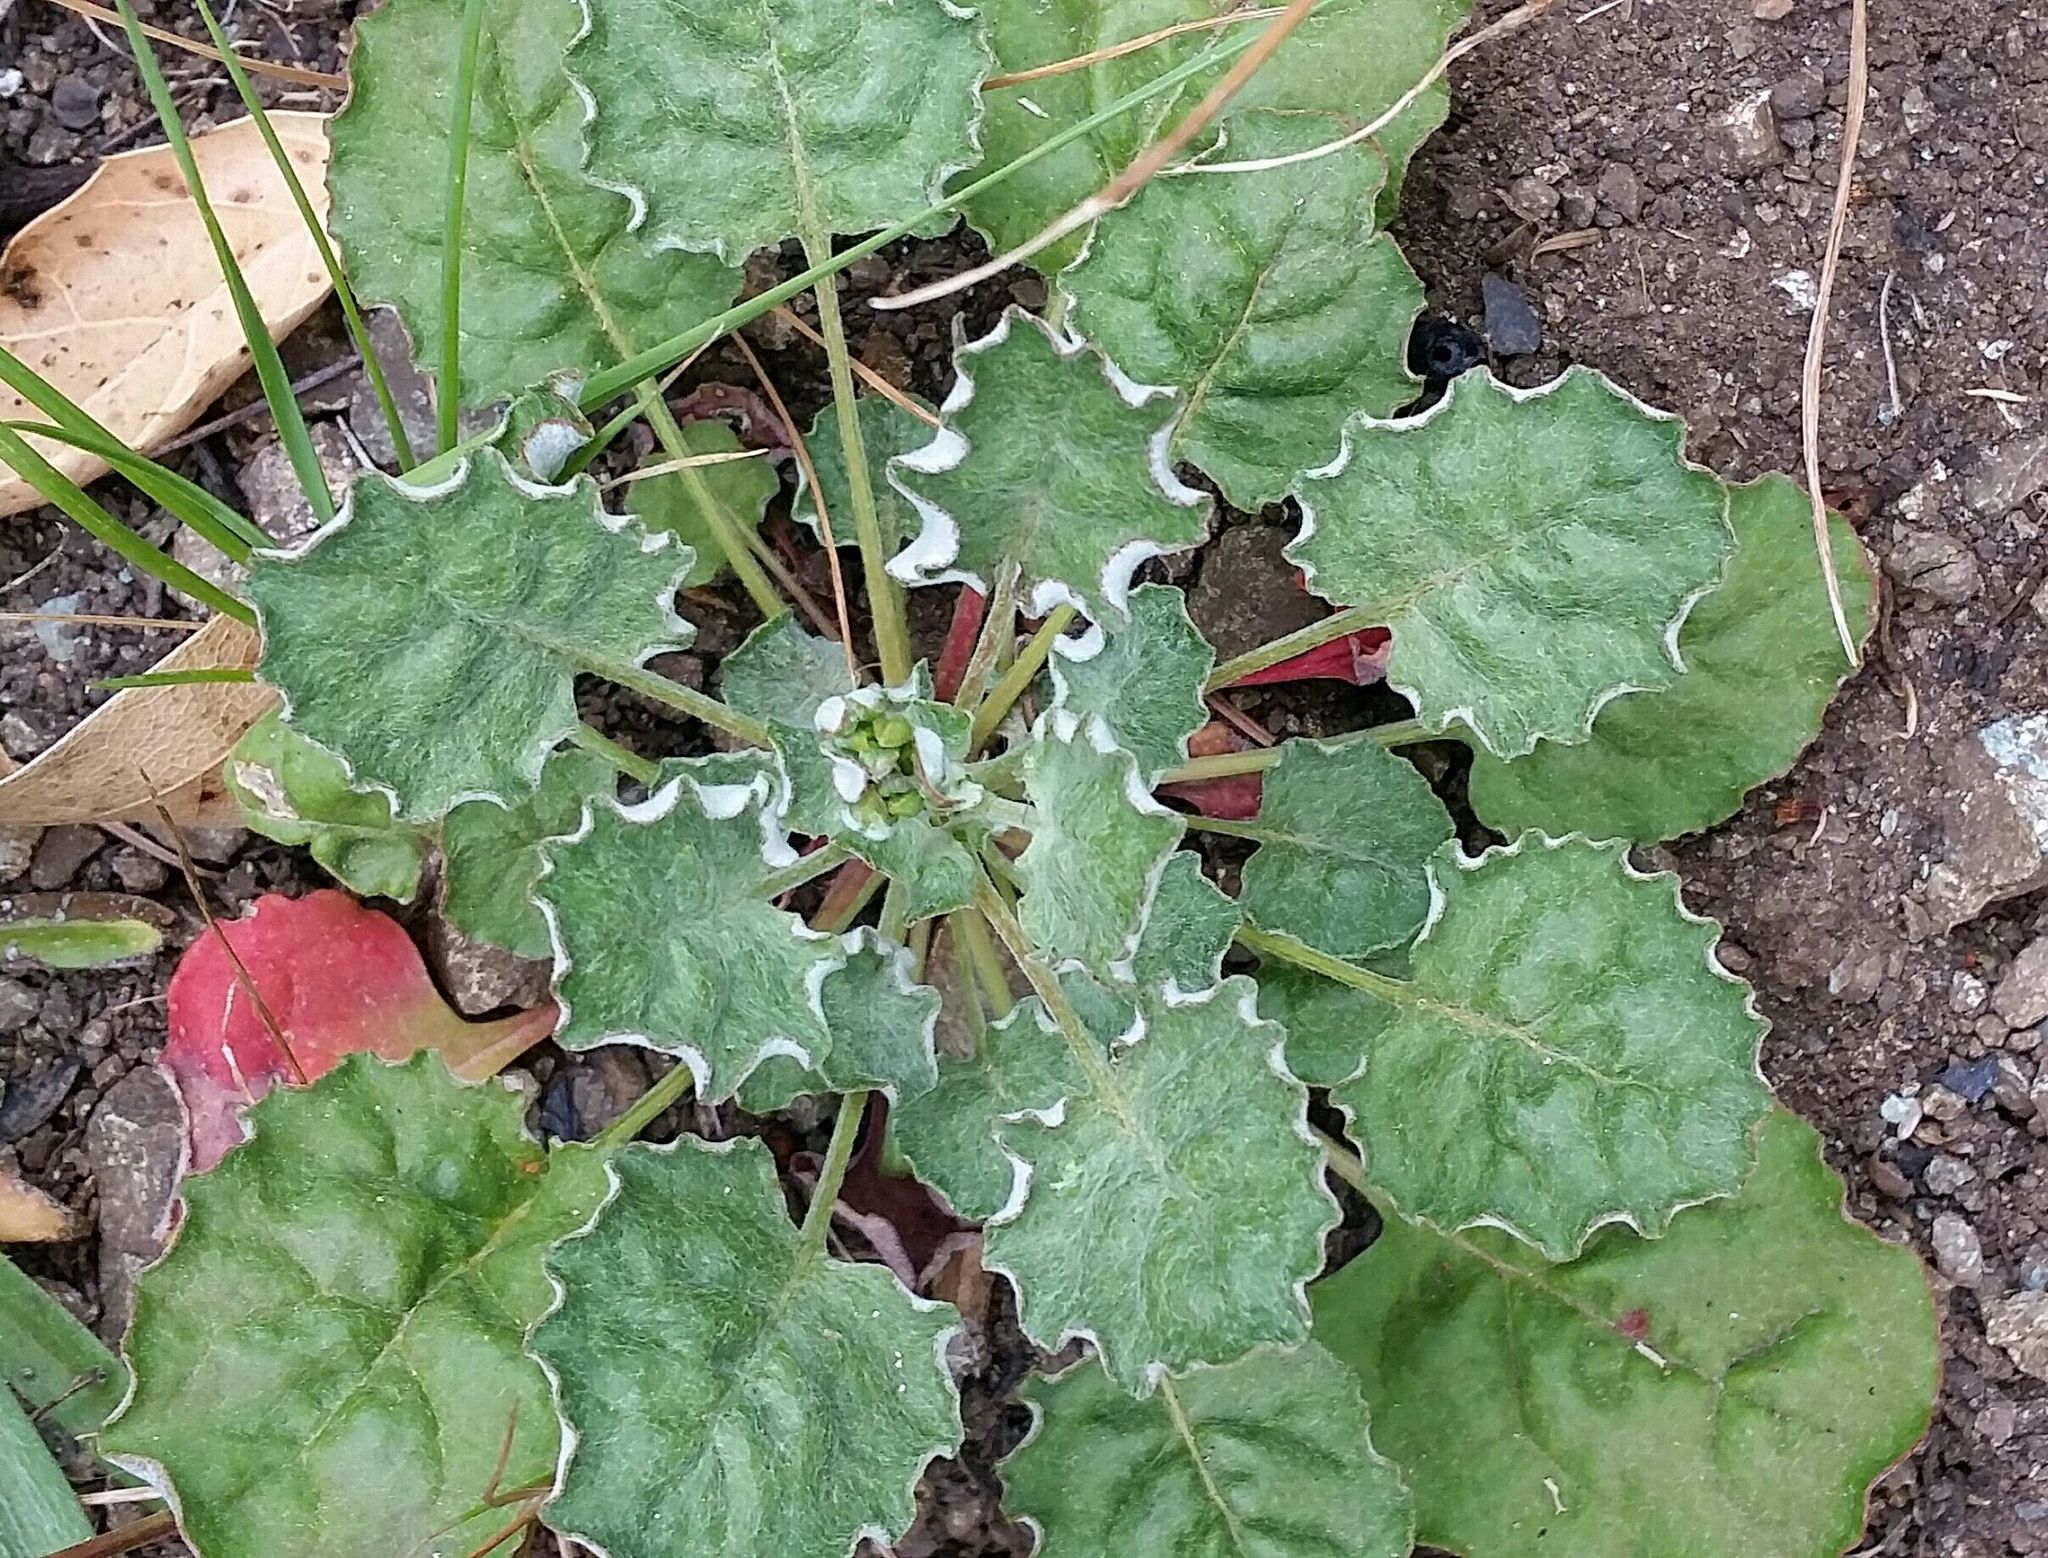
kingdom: Plantae
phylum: Tracheophyta
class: Magnoliopsida
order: Caryophyllales
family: Polygonaceae
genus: Eriogonum
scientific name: Eriogonum nudum
